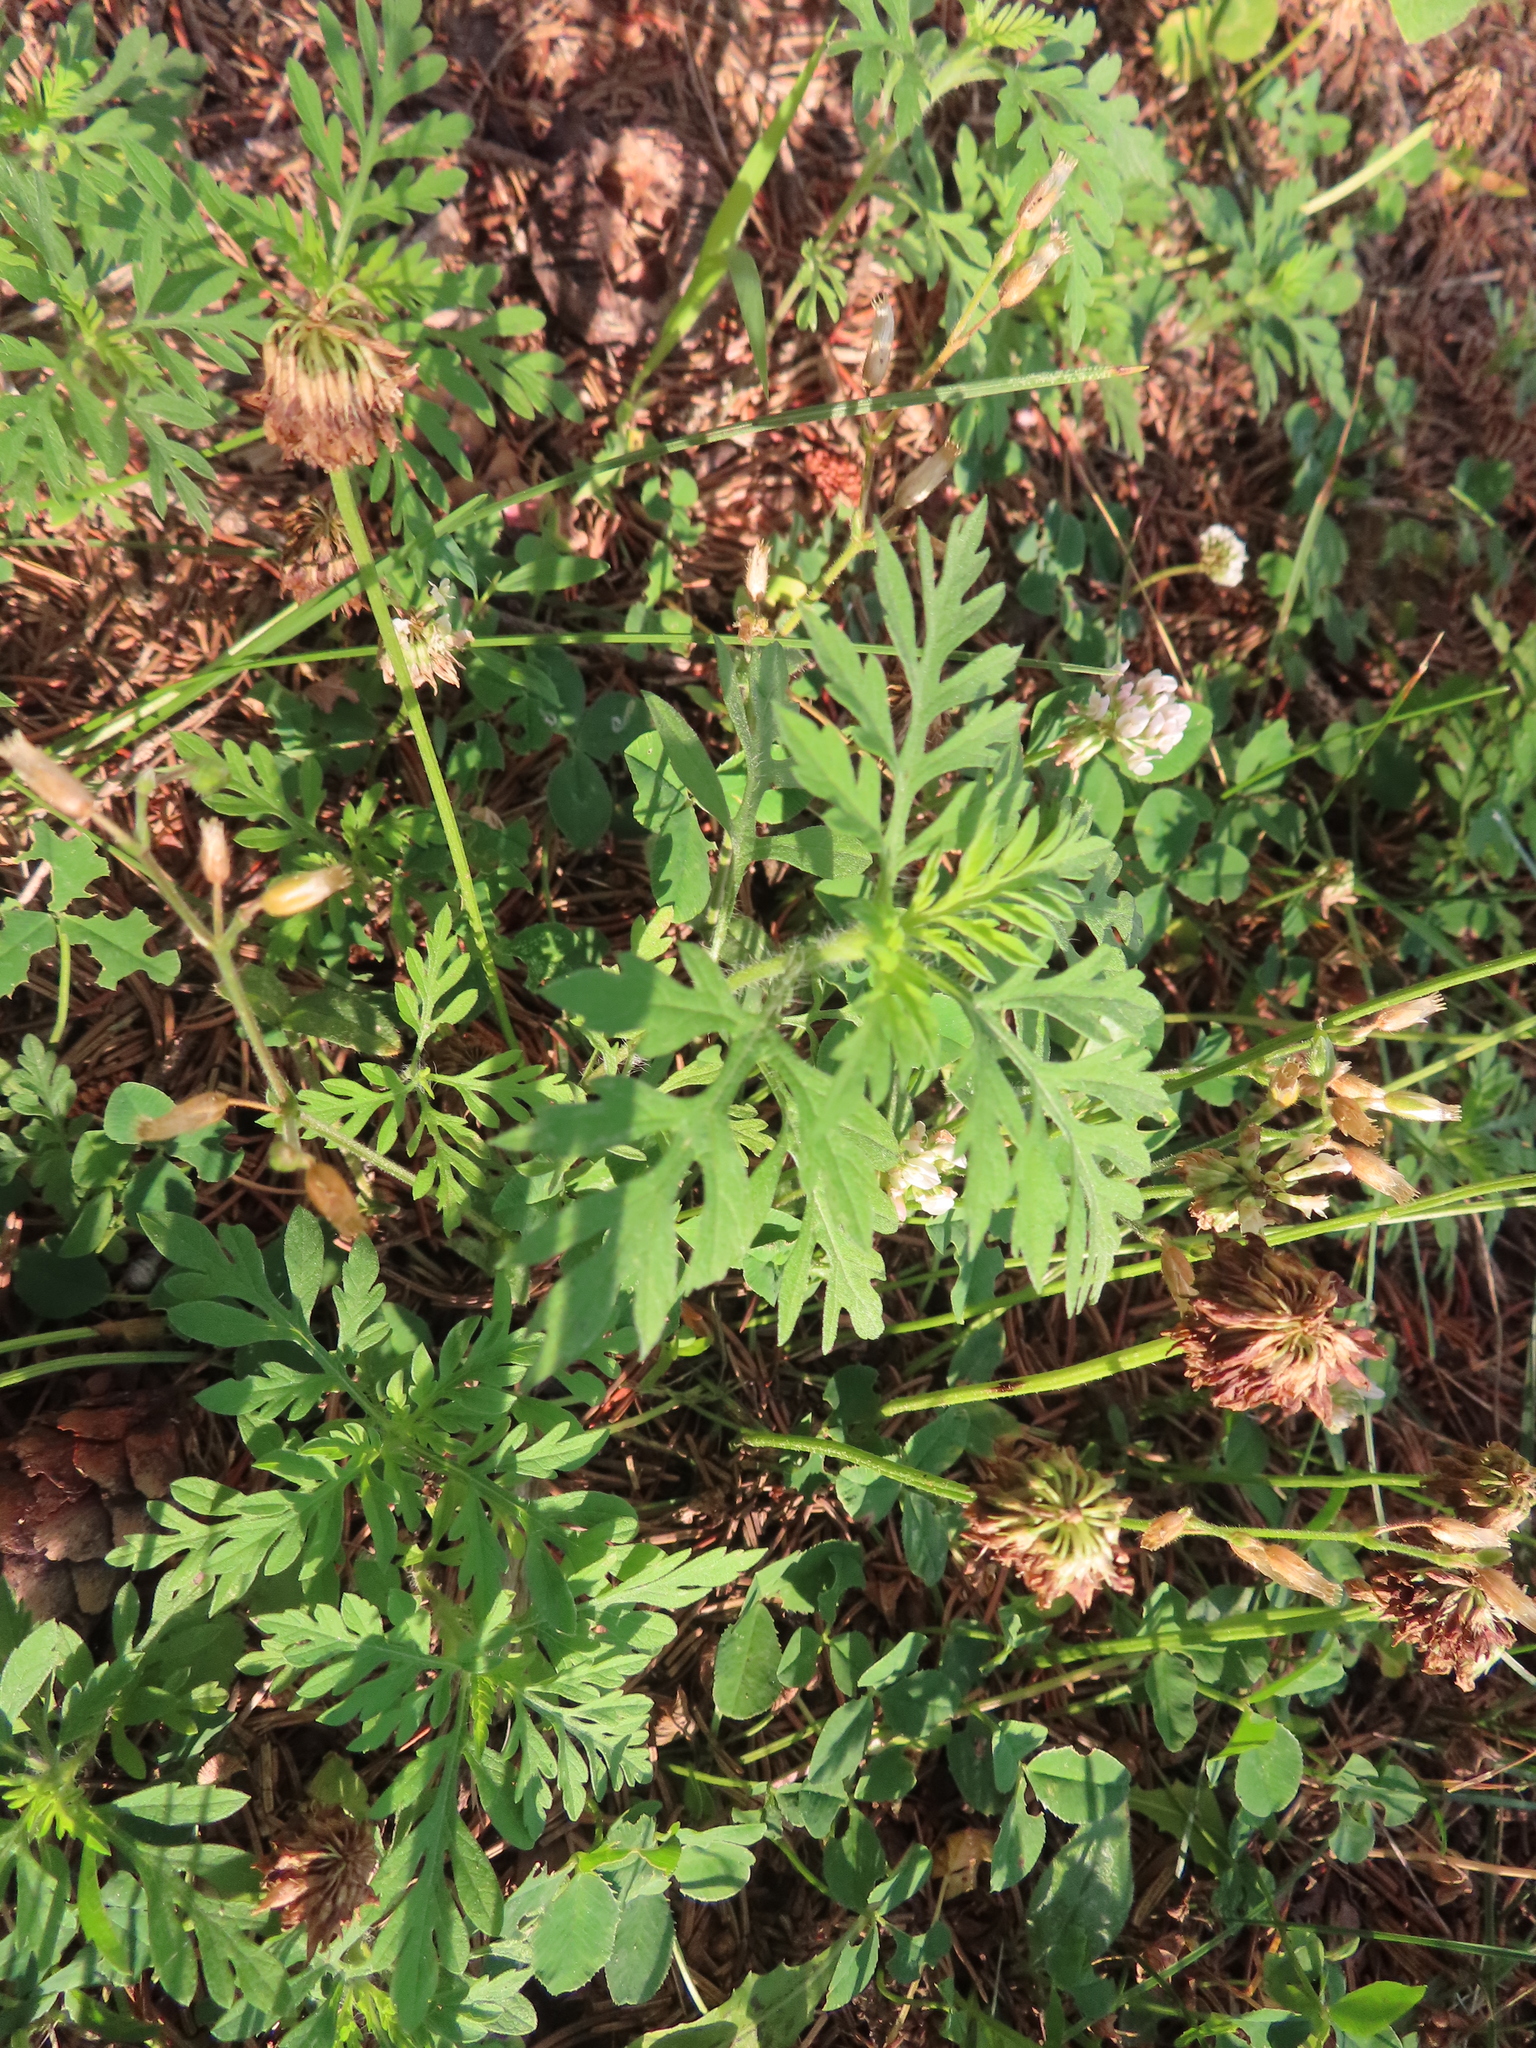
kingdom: Plantae
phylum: Tracheophyta
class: Magnoliopsida
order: Asterales
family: Asteraceae
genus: Ambrosia
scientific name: Ambrosia artemisiifolia
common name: Annual ragweed
